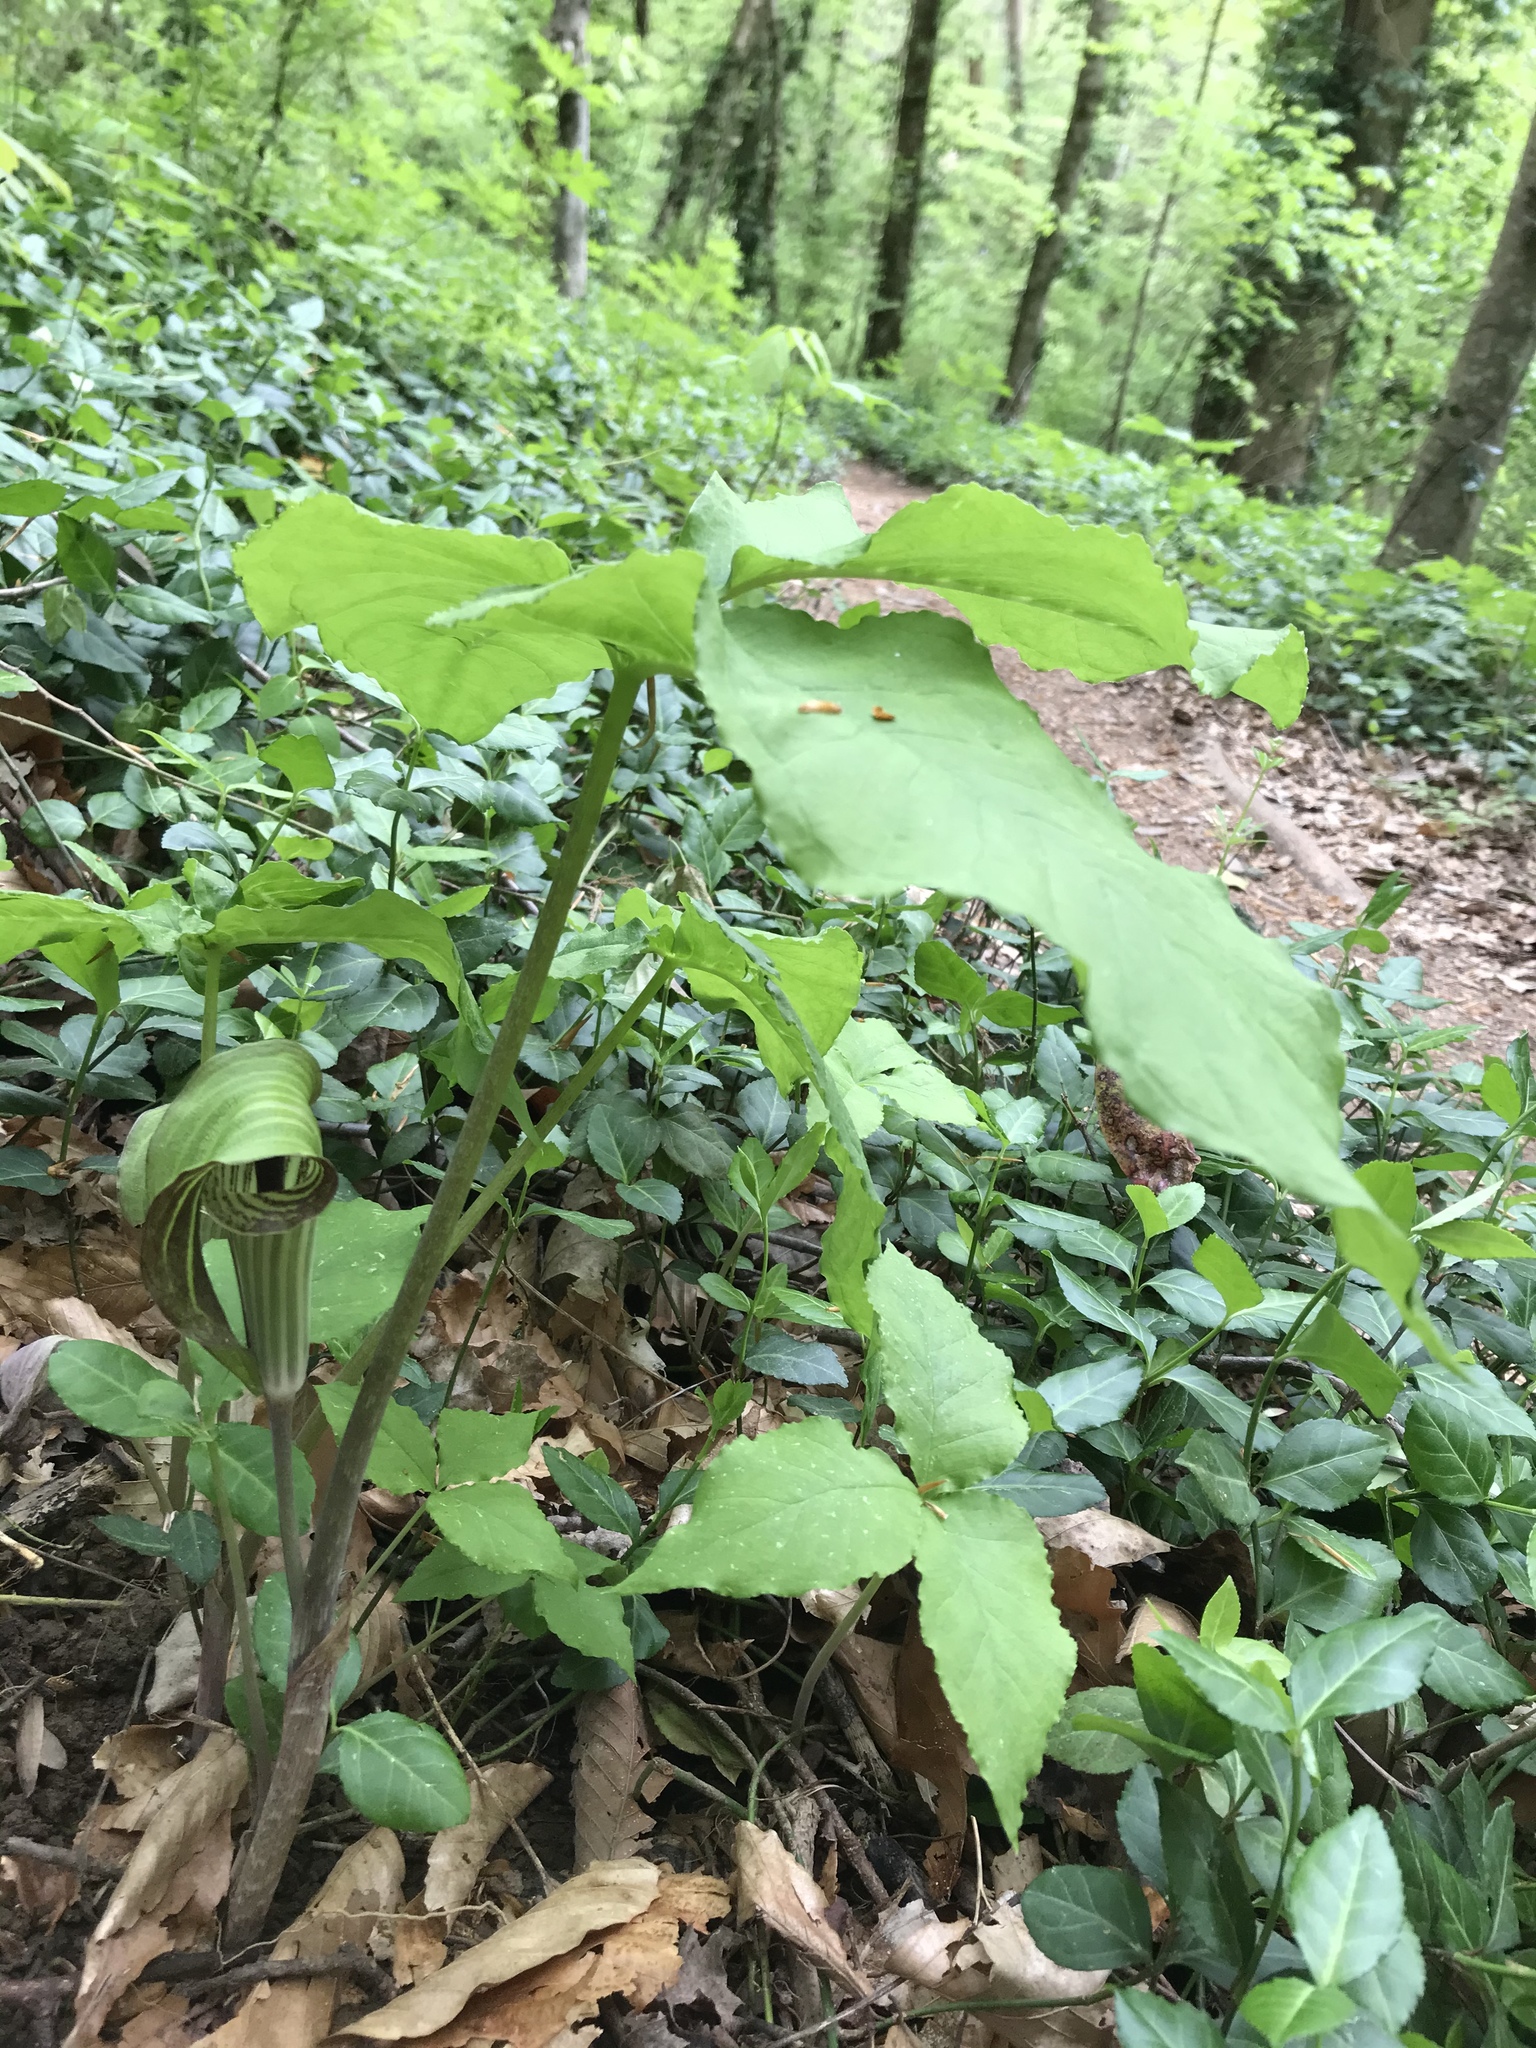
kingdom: Plantae
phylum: Tracheophyta
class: Liliopsida
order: Alismatales
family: Araceae
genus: Arisaema
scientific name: Arisaema triphyllum
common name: Jack-in-the-pulpit
